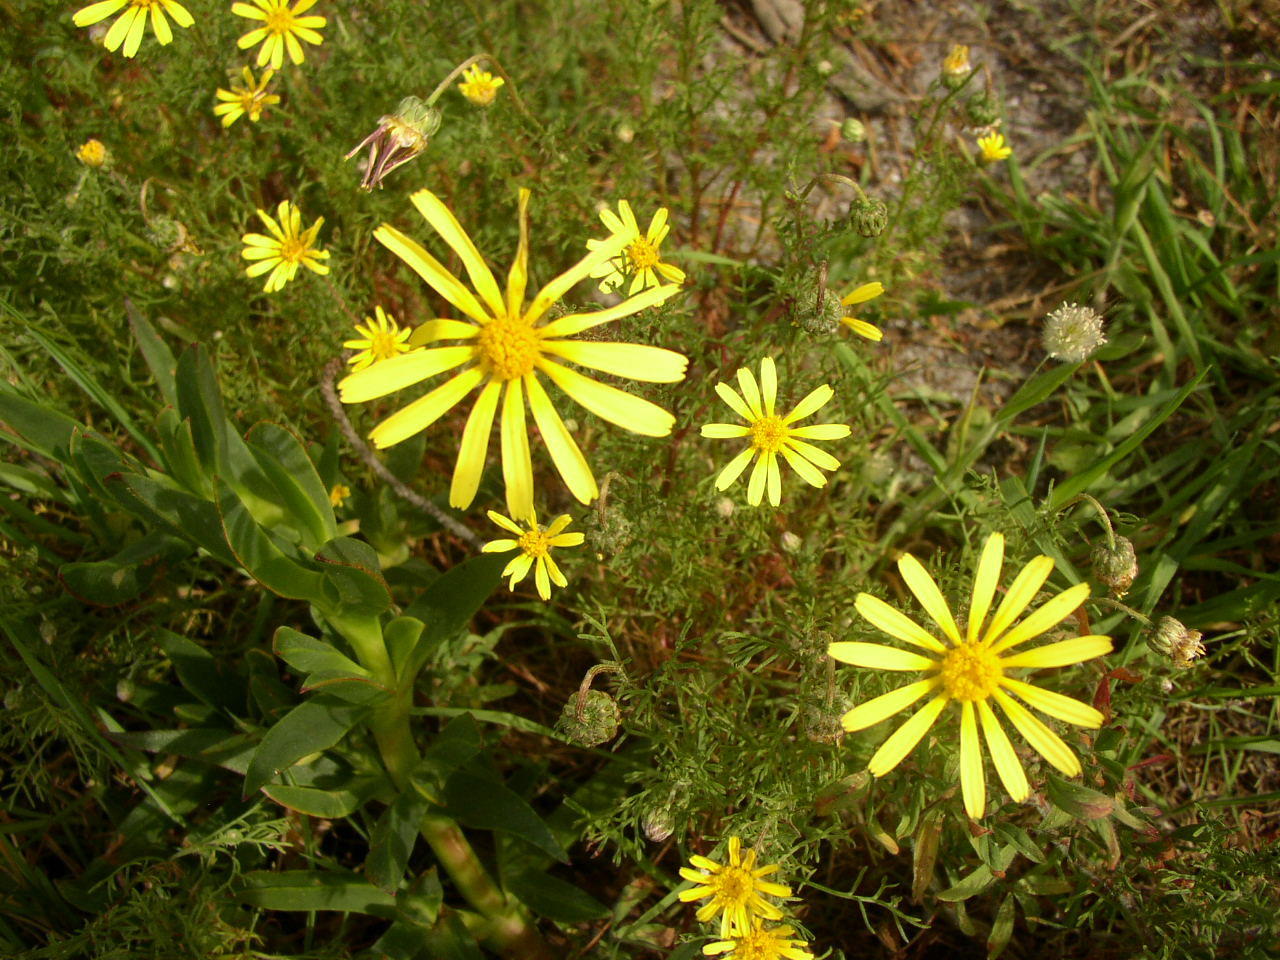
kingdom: Plantae
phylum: Tracheophyta
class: Magnoliopsida
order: Asterales
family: Asteraceae
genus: Ursinia
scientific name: Ursinia paleacea
